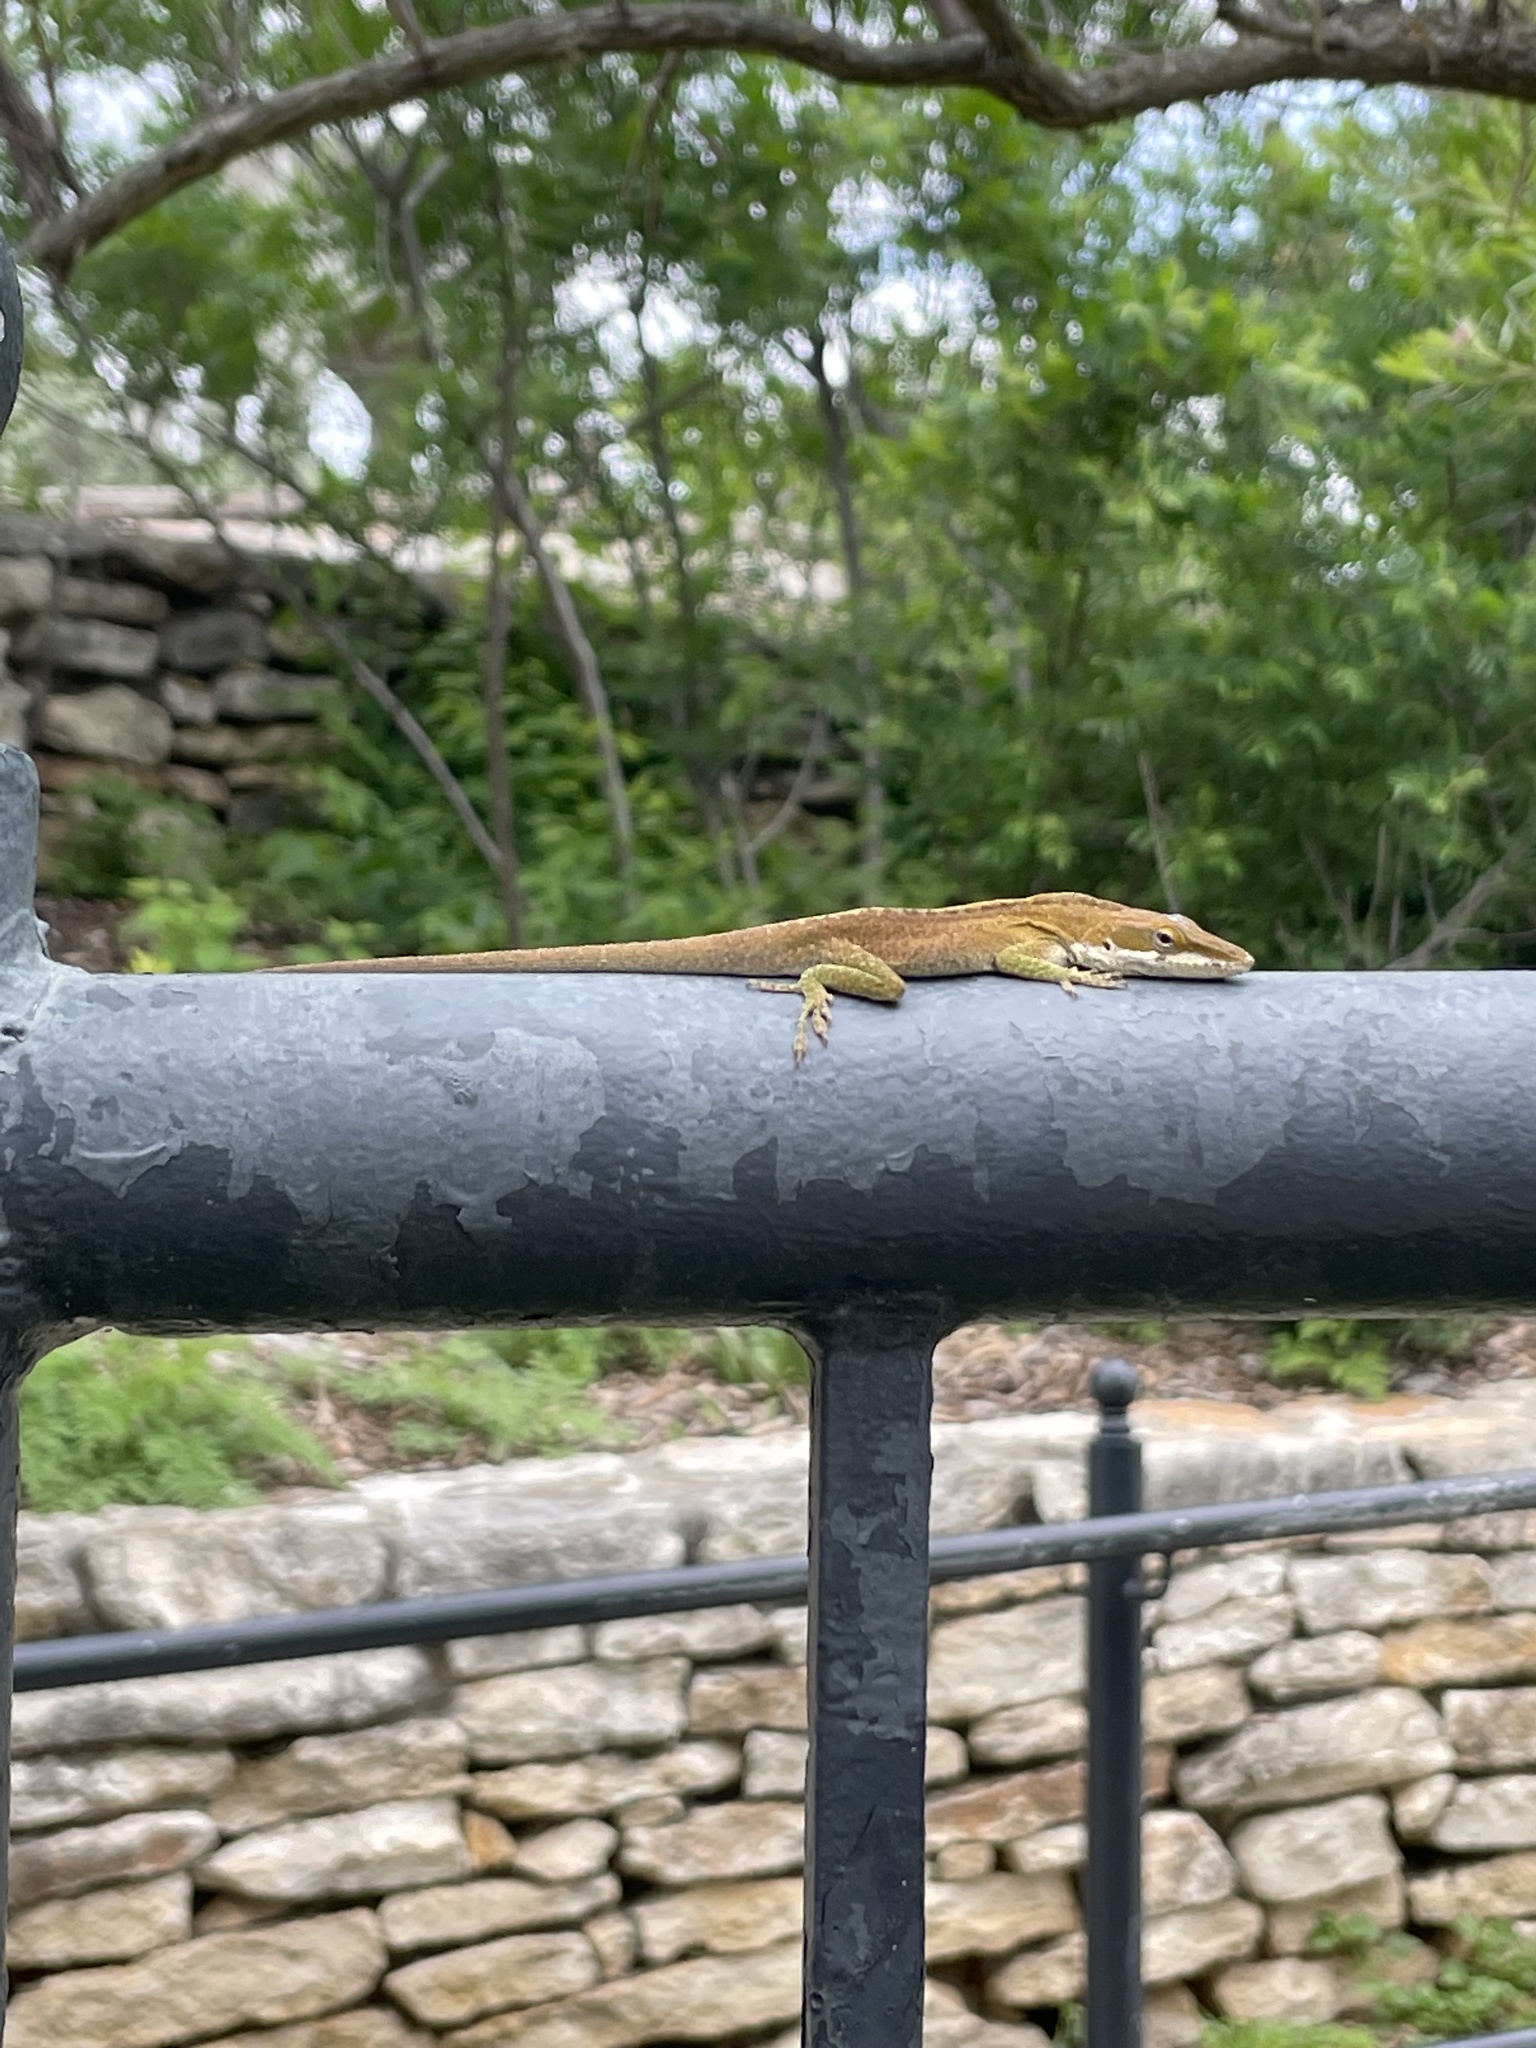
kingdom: Animalia
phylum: Chordata
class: Squamata
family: Dactyloidae
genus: Anolis
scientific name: Anolis carolinensis
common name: Green anole
